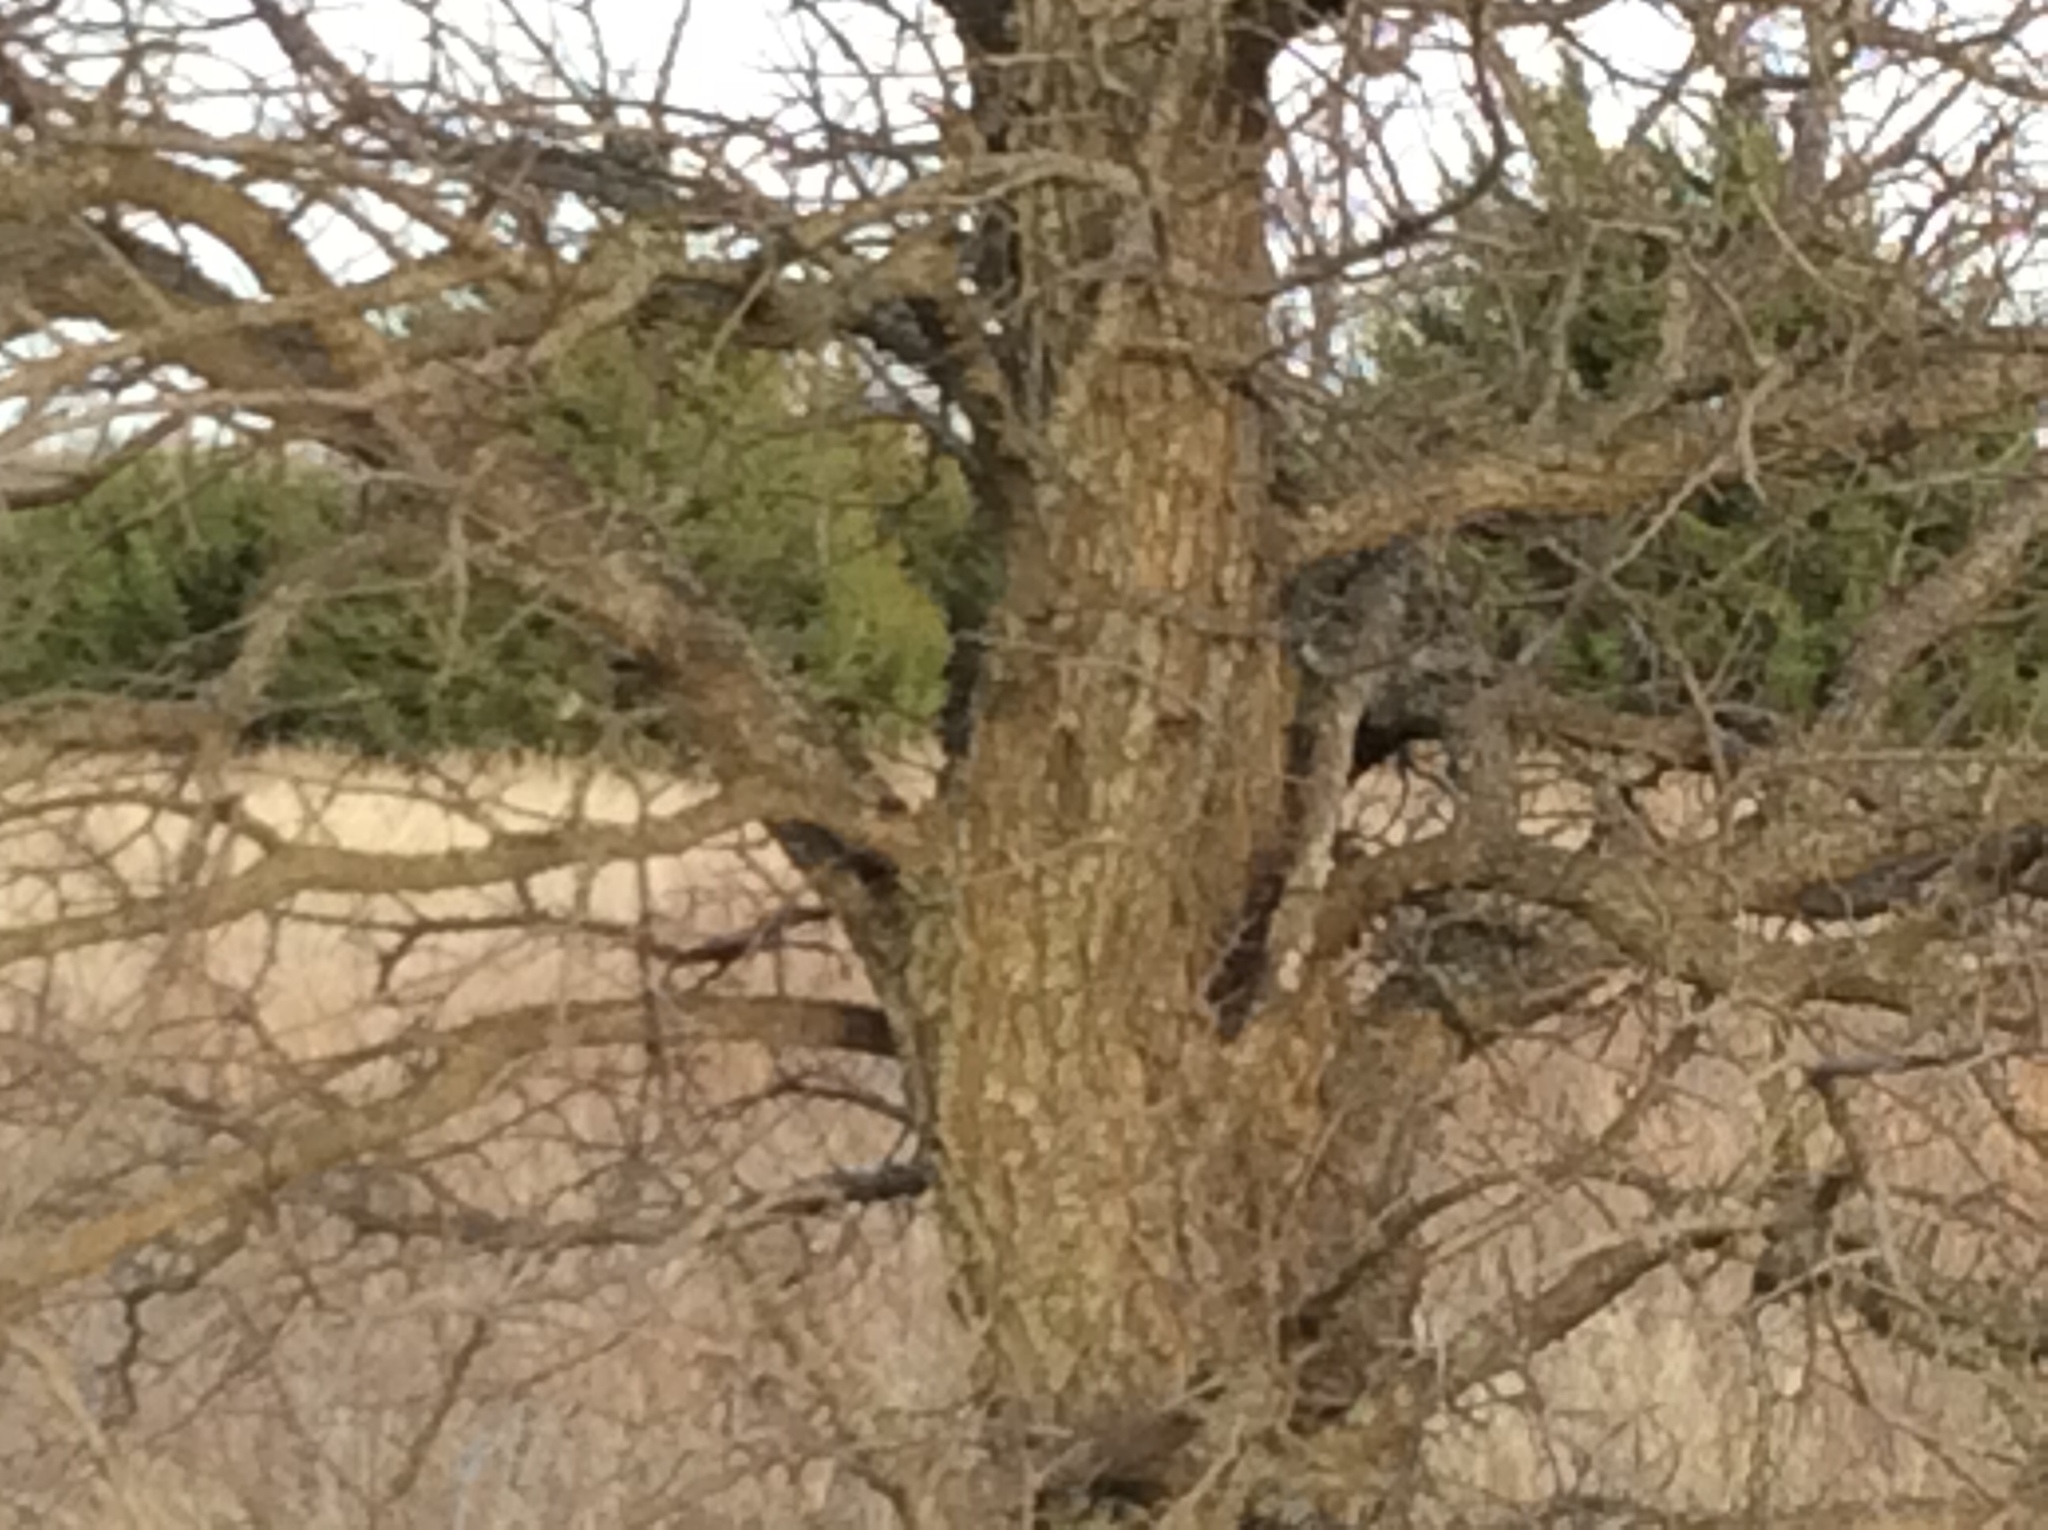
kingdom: Plantae
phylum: Tracheophyta
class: Magnoliopsida
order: Rosales
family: Ulmaceae
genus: Ulmus
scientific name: Ulmus crassifolia
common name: Basket elm
